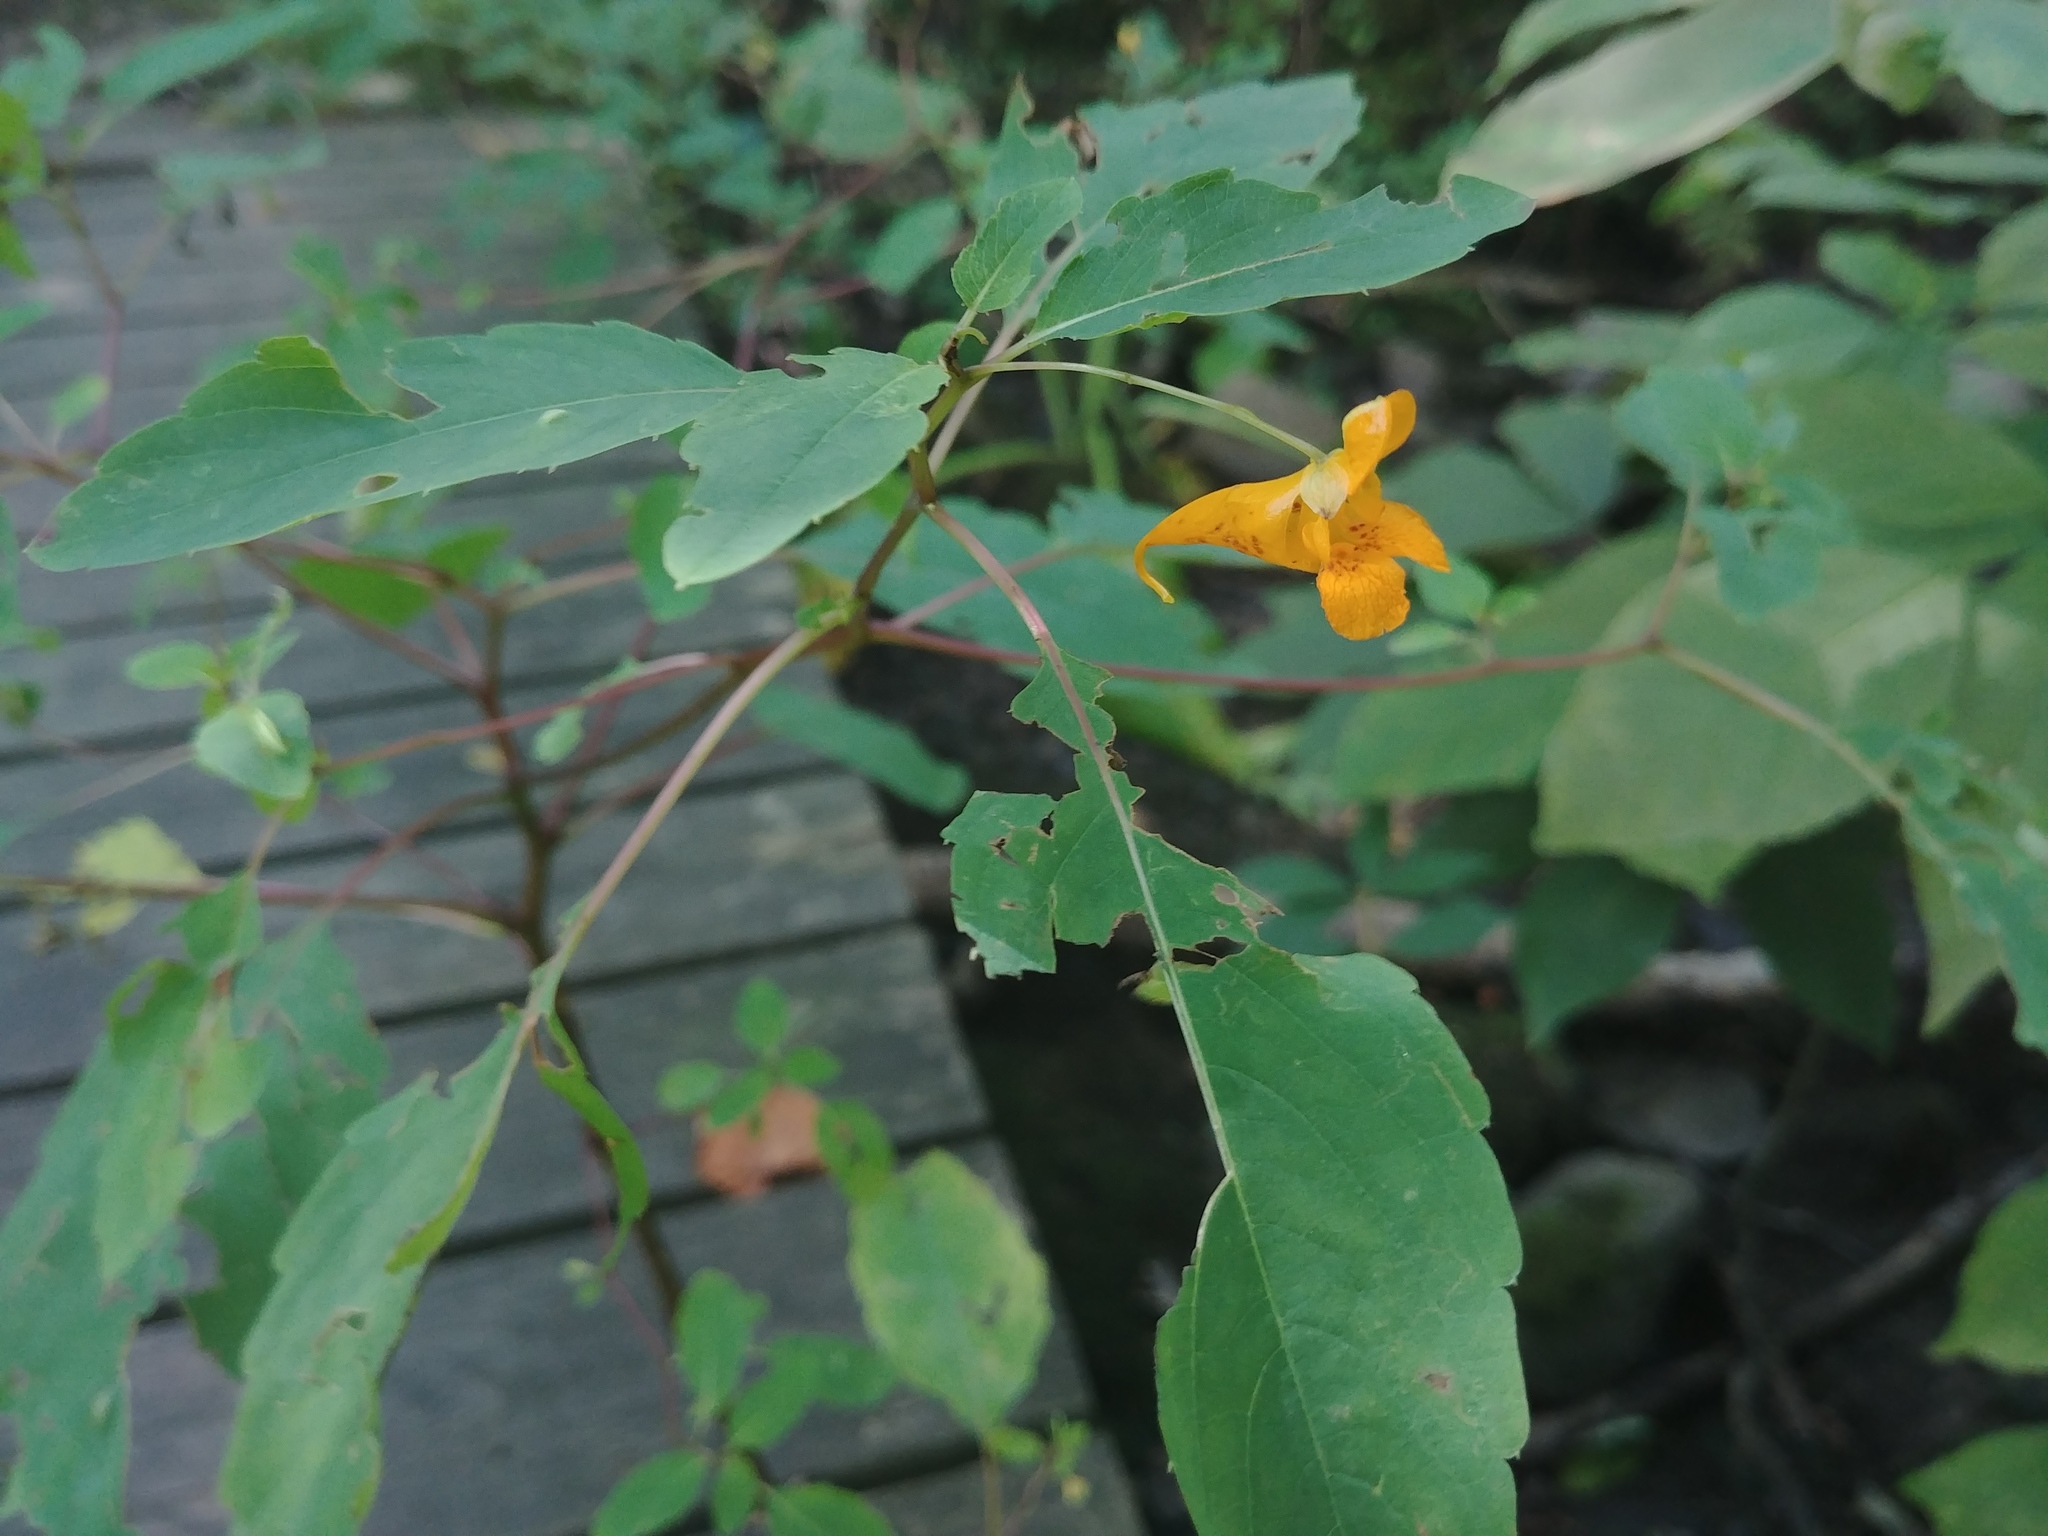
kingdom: Plantae
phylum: Tracheophyta
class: Magnoliopsida
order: Ericales
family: Balsaminaceae
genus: Impatiens
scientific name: Impatiens capensis
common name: Orange balsam
